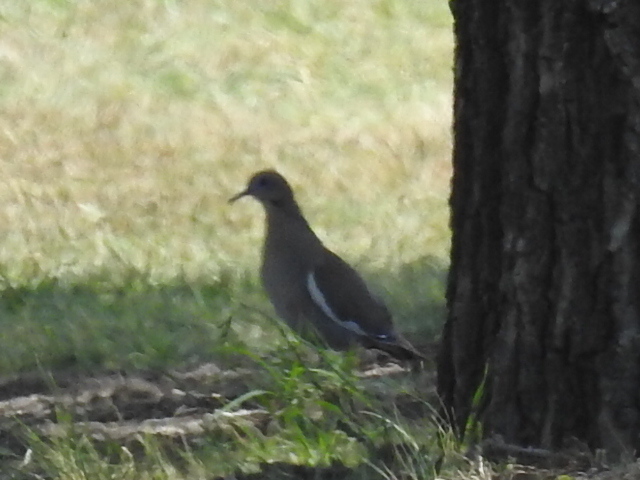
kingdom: Animalia
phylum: Chordata
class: Aves
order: Columbiformes
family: Columbidae
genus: Zenaida
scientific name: Zenaida asiatica
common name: White-winged dove
